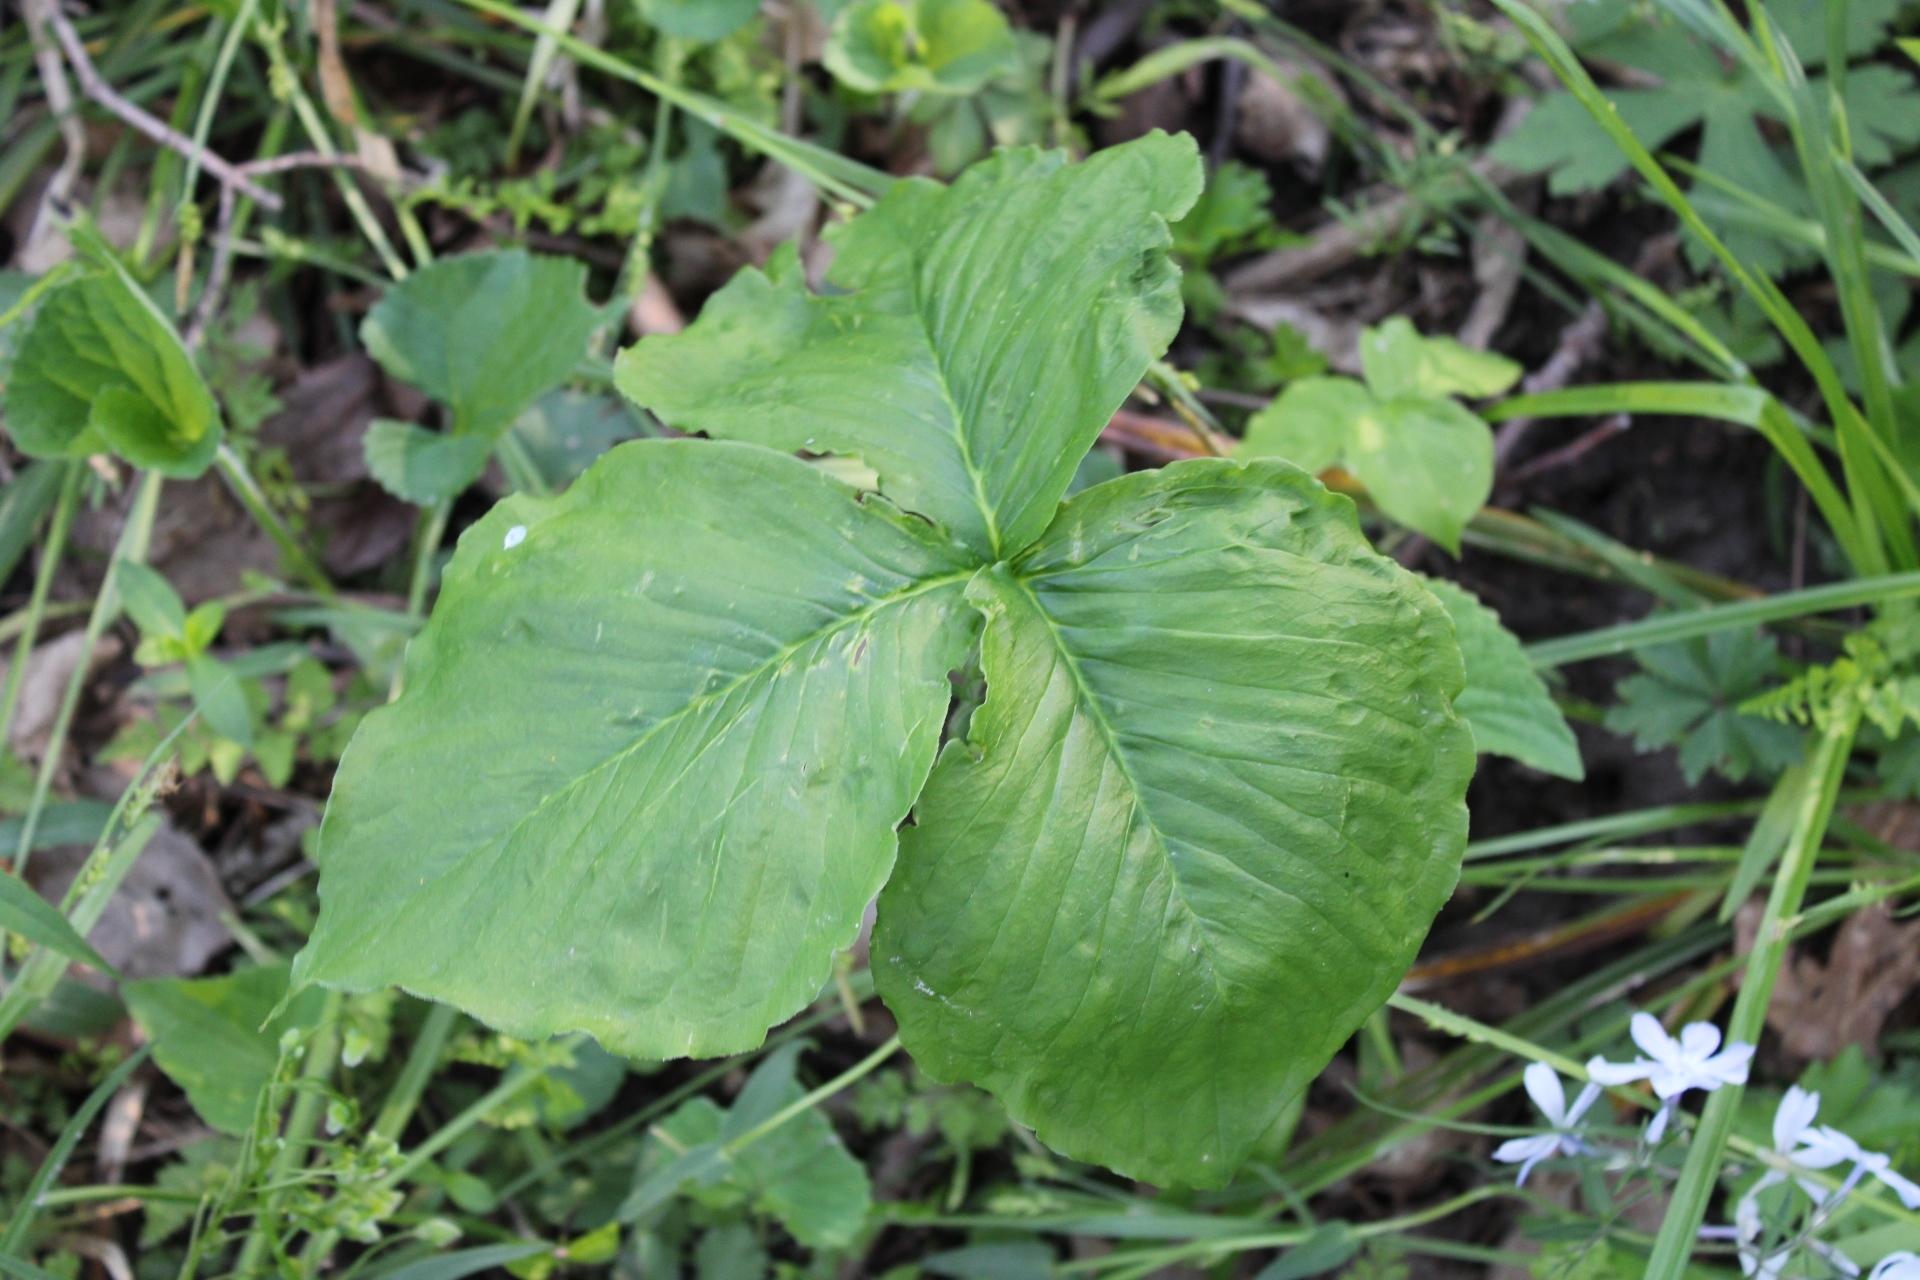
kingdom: Plantae
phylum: Tracheophyta
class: Liliopsida
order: Alismatales
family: Araceae
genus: Arisaema
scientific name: Arisaema triphyllum
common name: Jack-in-the-pulpit
